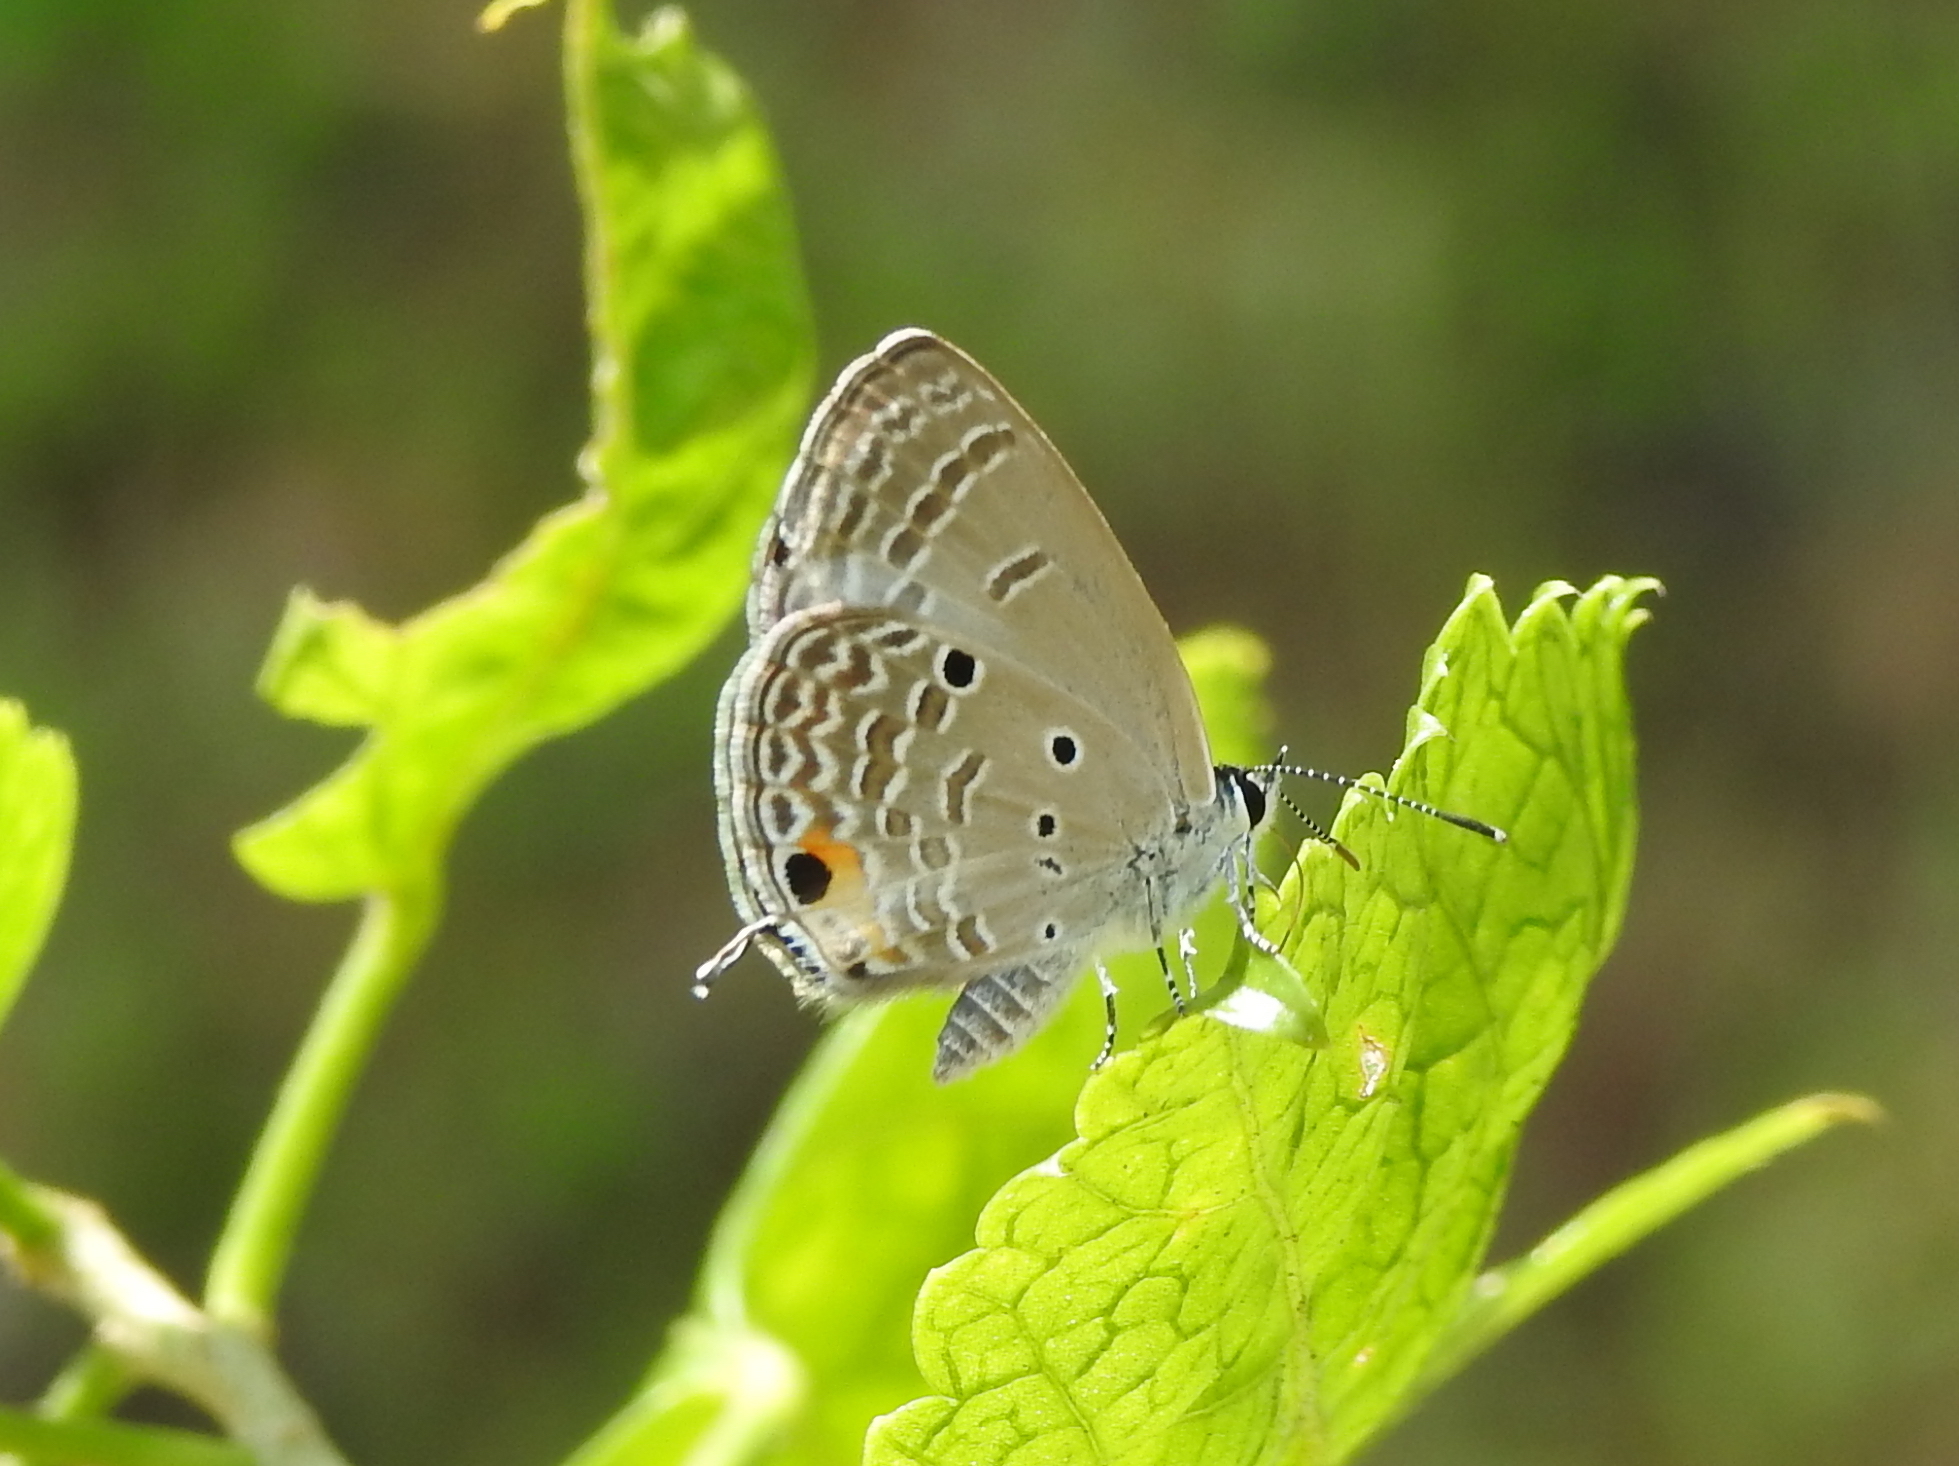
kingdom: Animalia
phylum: Arthropoda
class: Insecta
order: Lepidoptera
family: Lycaenidae
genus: Luthrodes
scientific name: Luthrodes pandava
